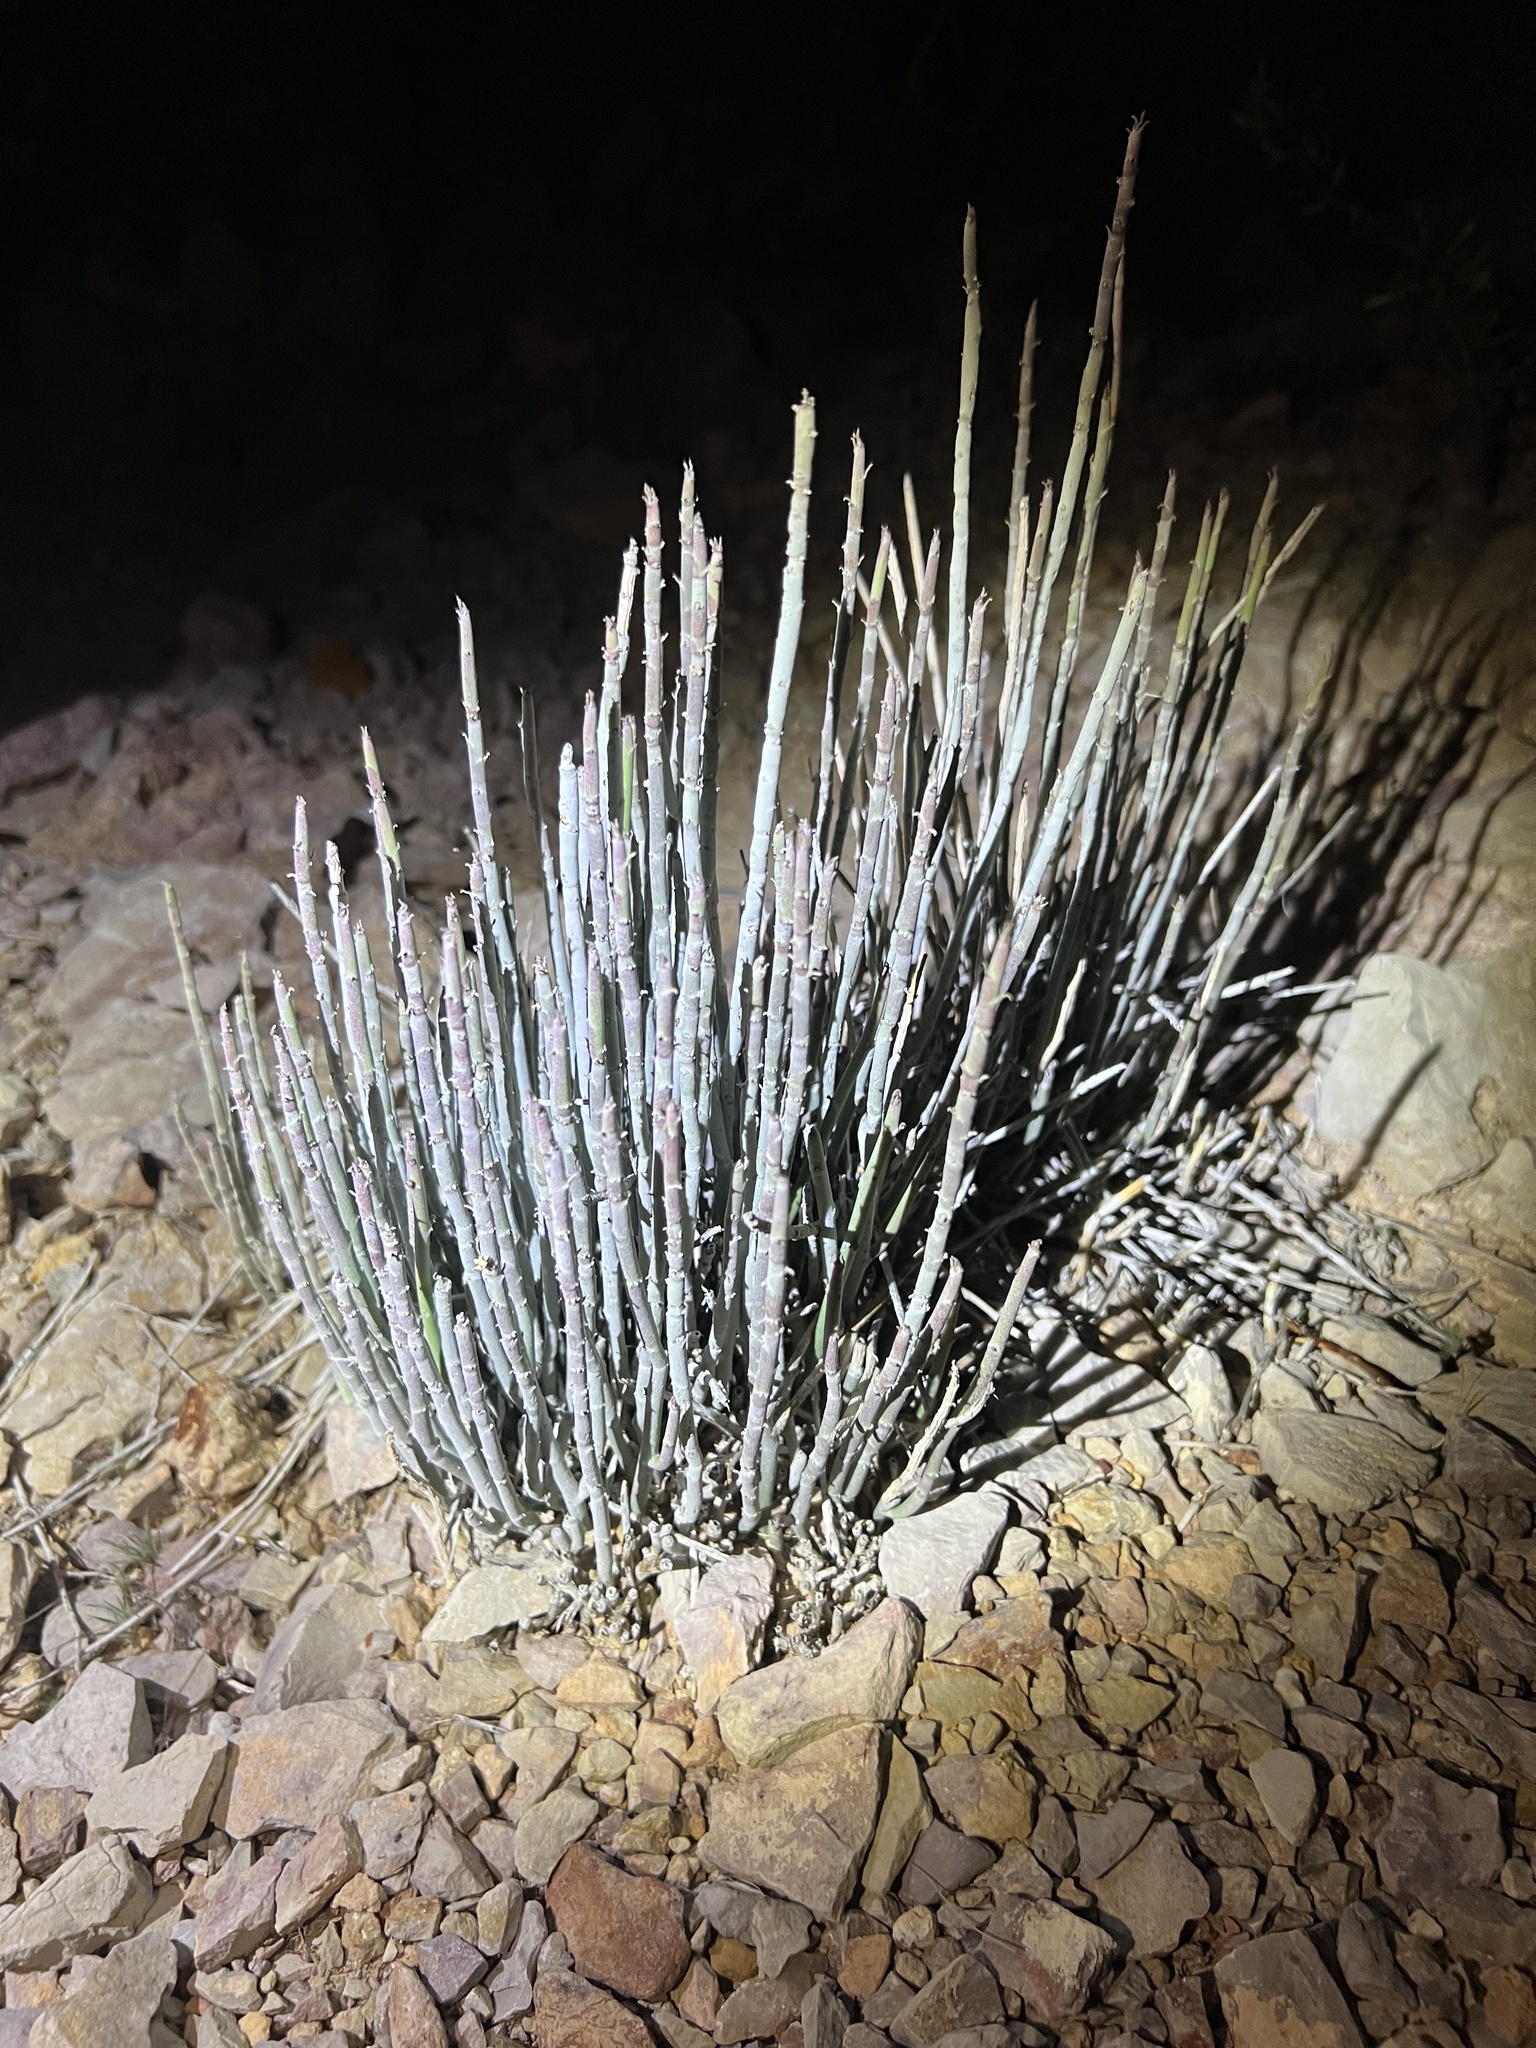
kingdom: Plantae
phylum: Tracheophyta
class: Magnoliopsida
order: Malpighiales
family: Euphorbiaceae
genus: Euphorbia
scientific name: Euphorbia antisyphilitica
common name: Candelilla
